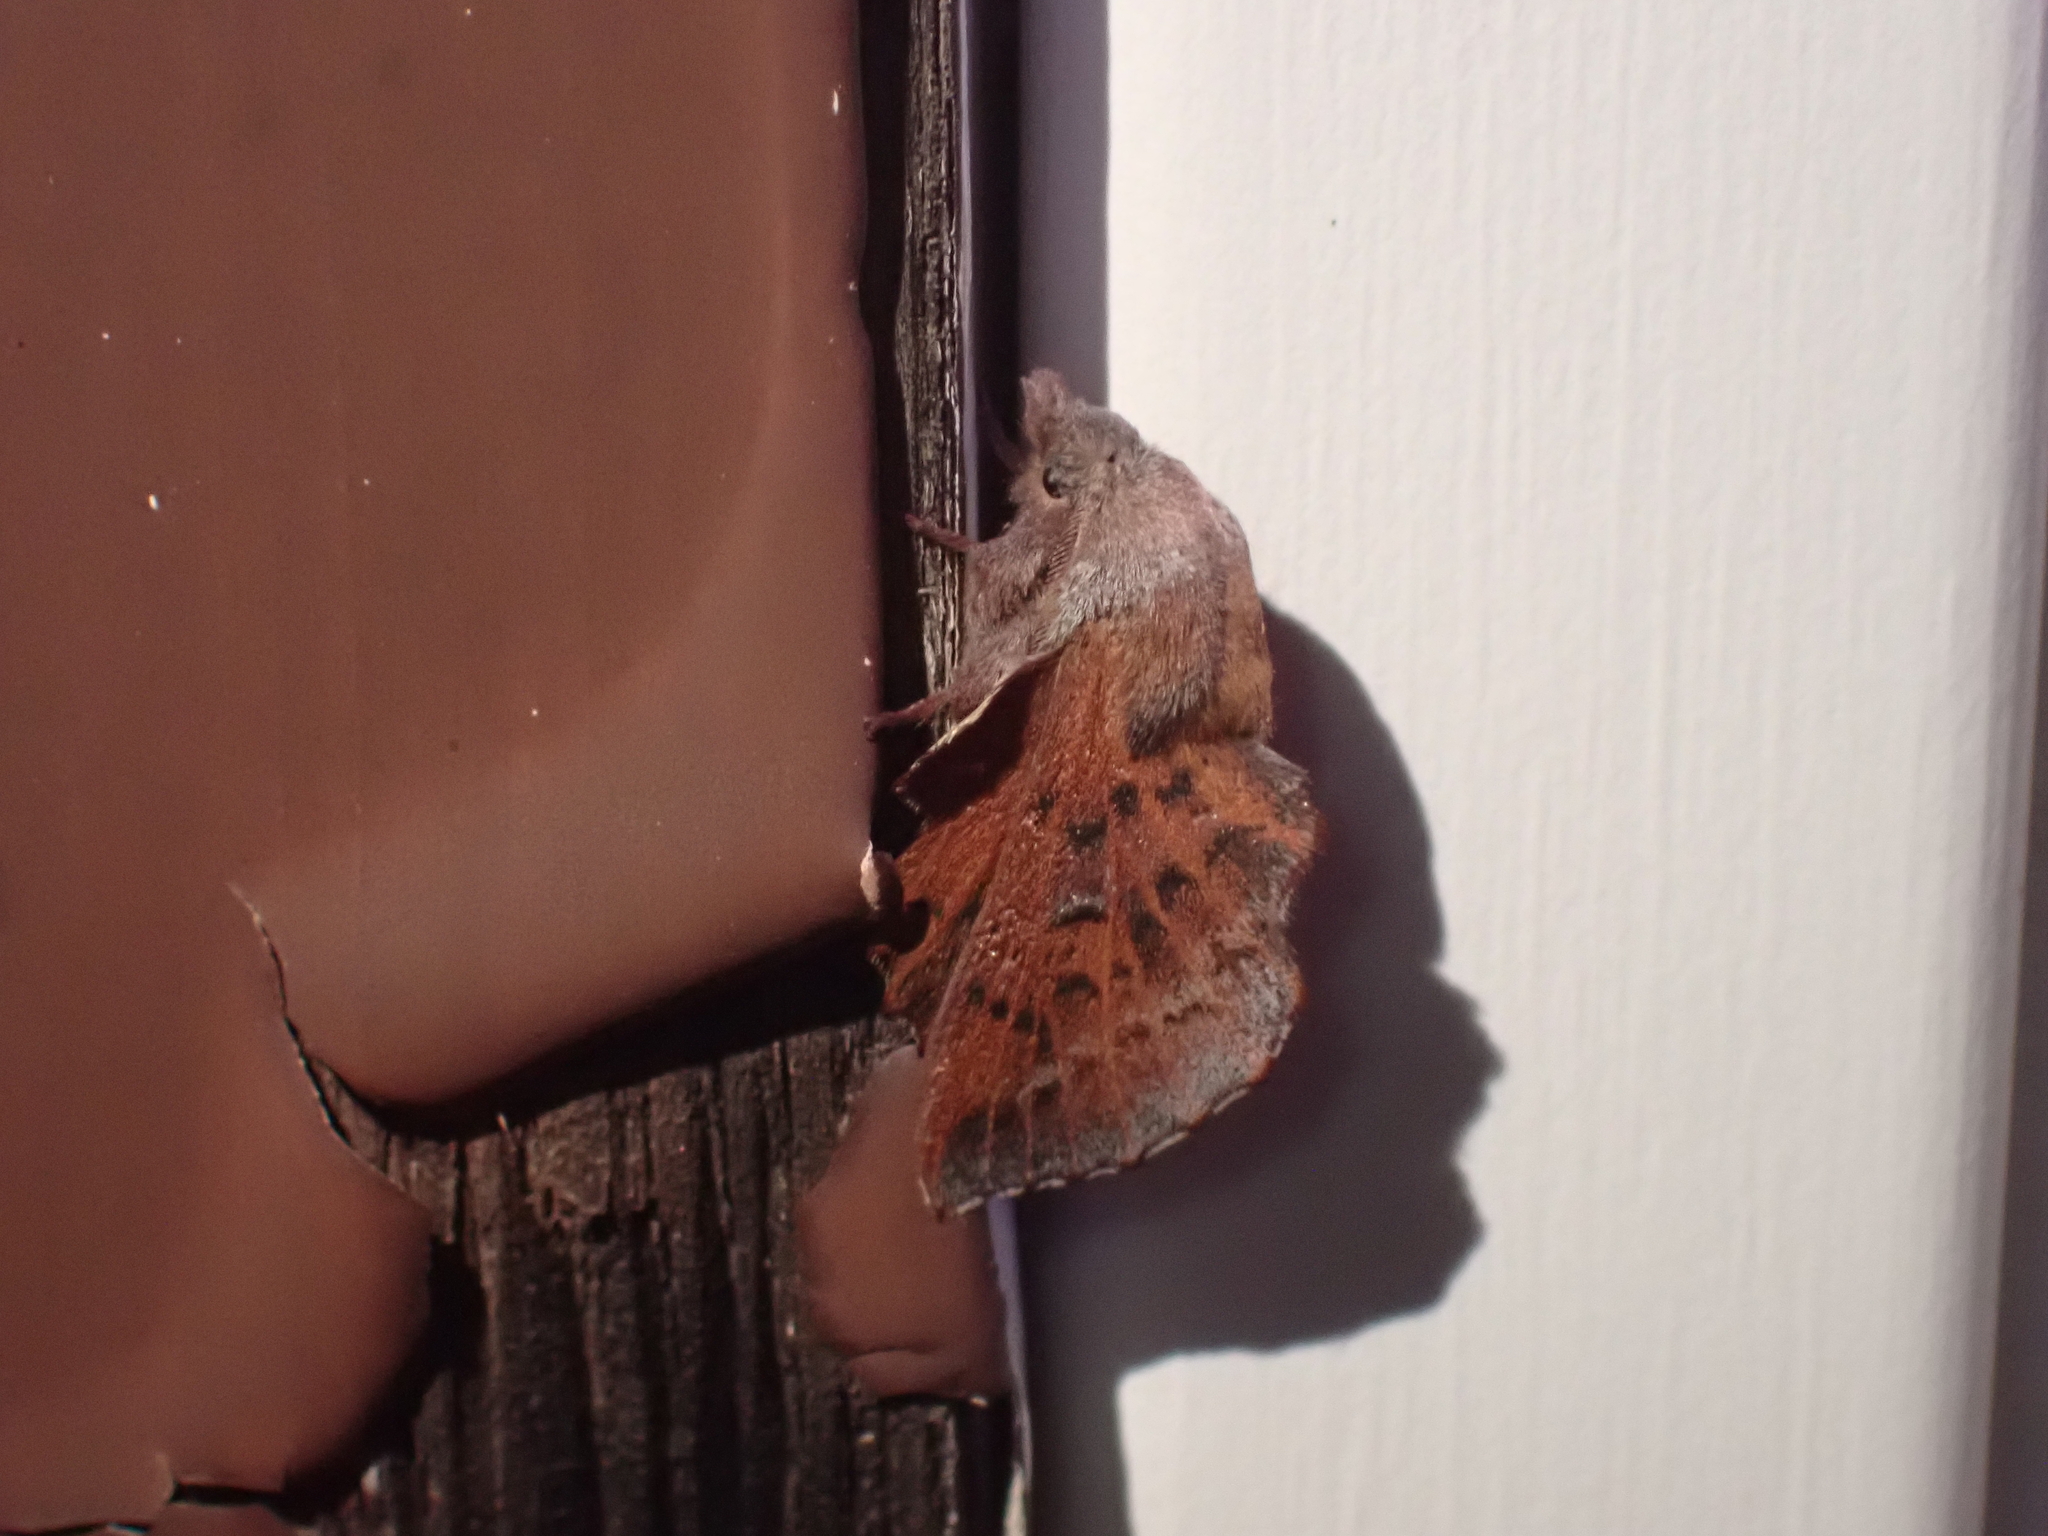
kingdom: Animalia
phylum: Arthropoda
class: Insecta
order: Lepidoptera
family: Lasiocampidae
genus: Phyllodesma
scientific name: Phyllodesma americana
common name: American lappet moth
